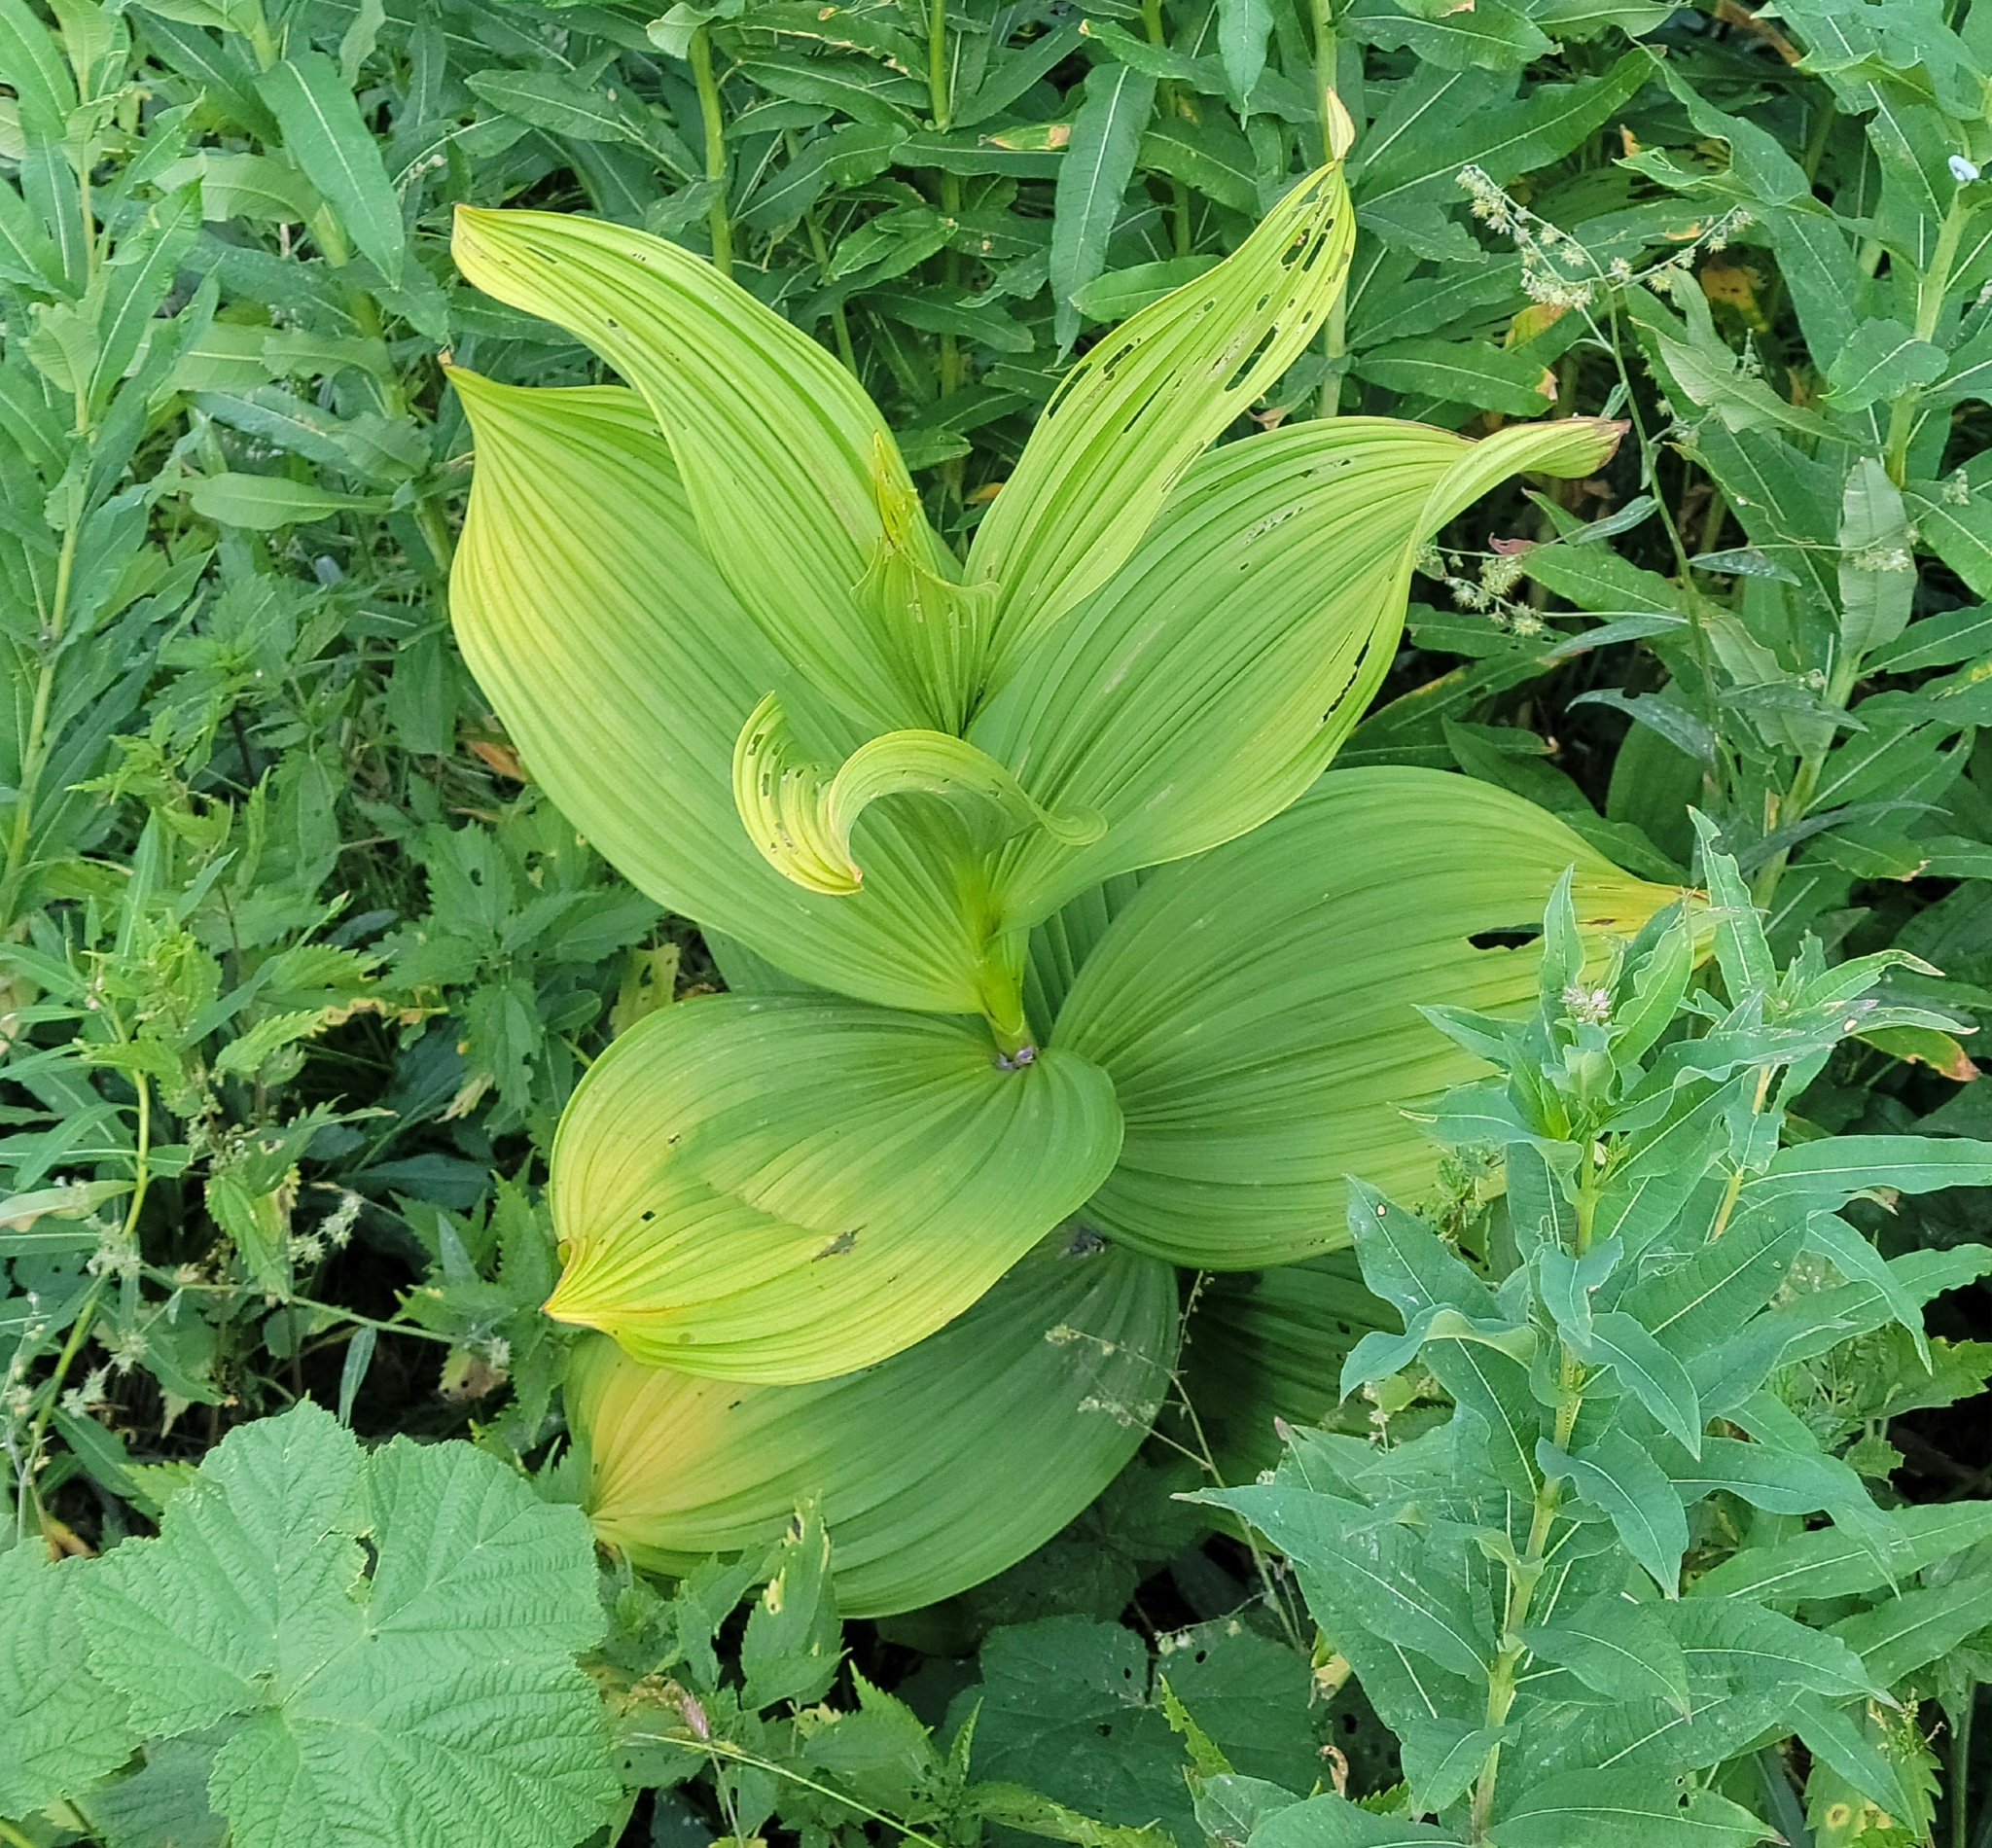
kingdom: Plantae
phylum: Tracheophyta
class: Liliopsida
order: Liliales
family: Melanthiaceae
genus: Veratrum
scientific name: Veratrum viride
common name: American false hellebore
